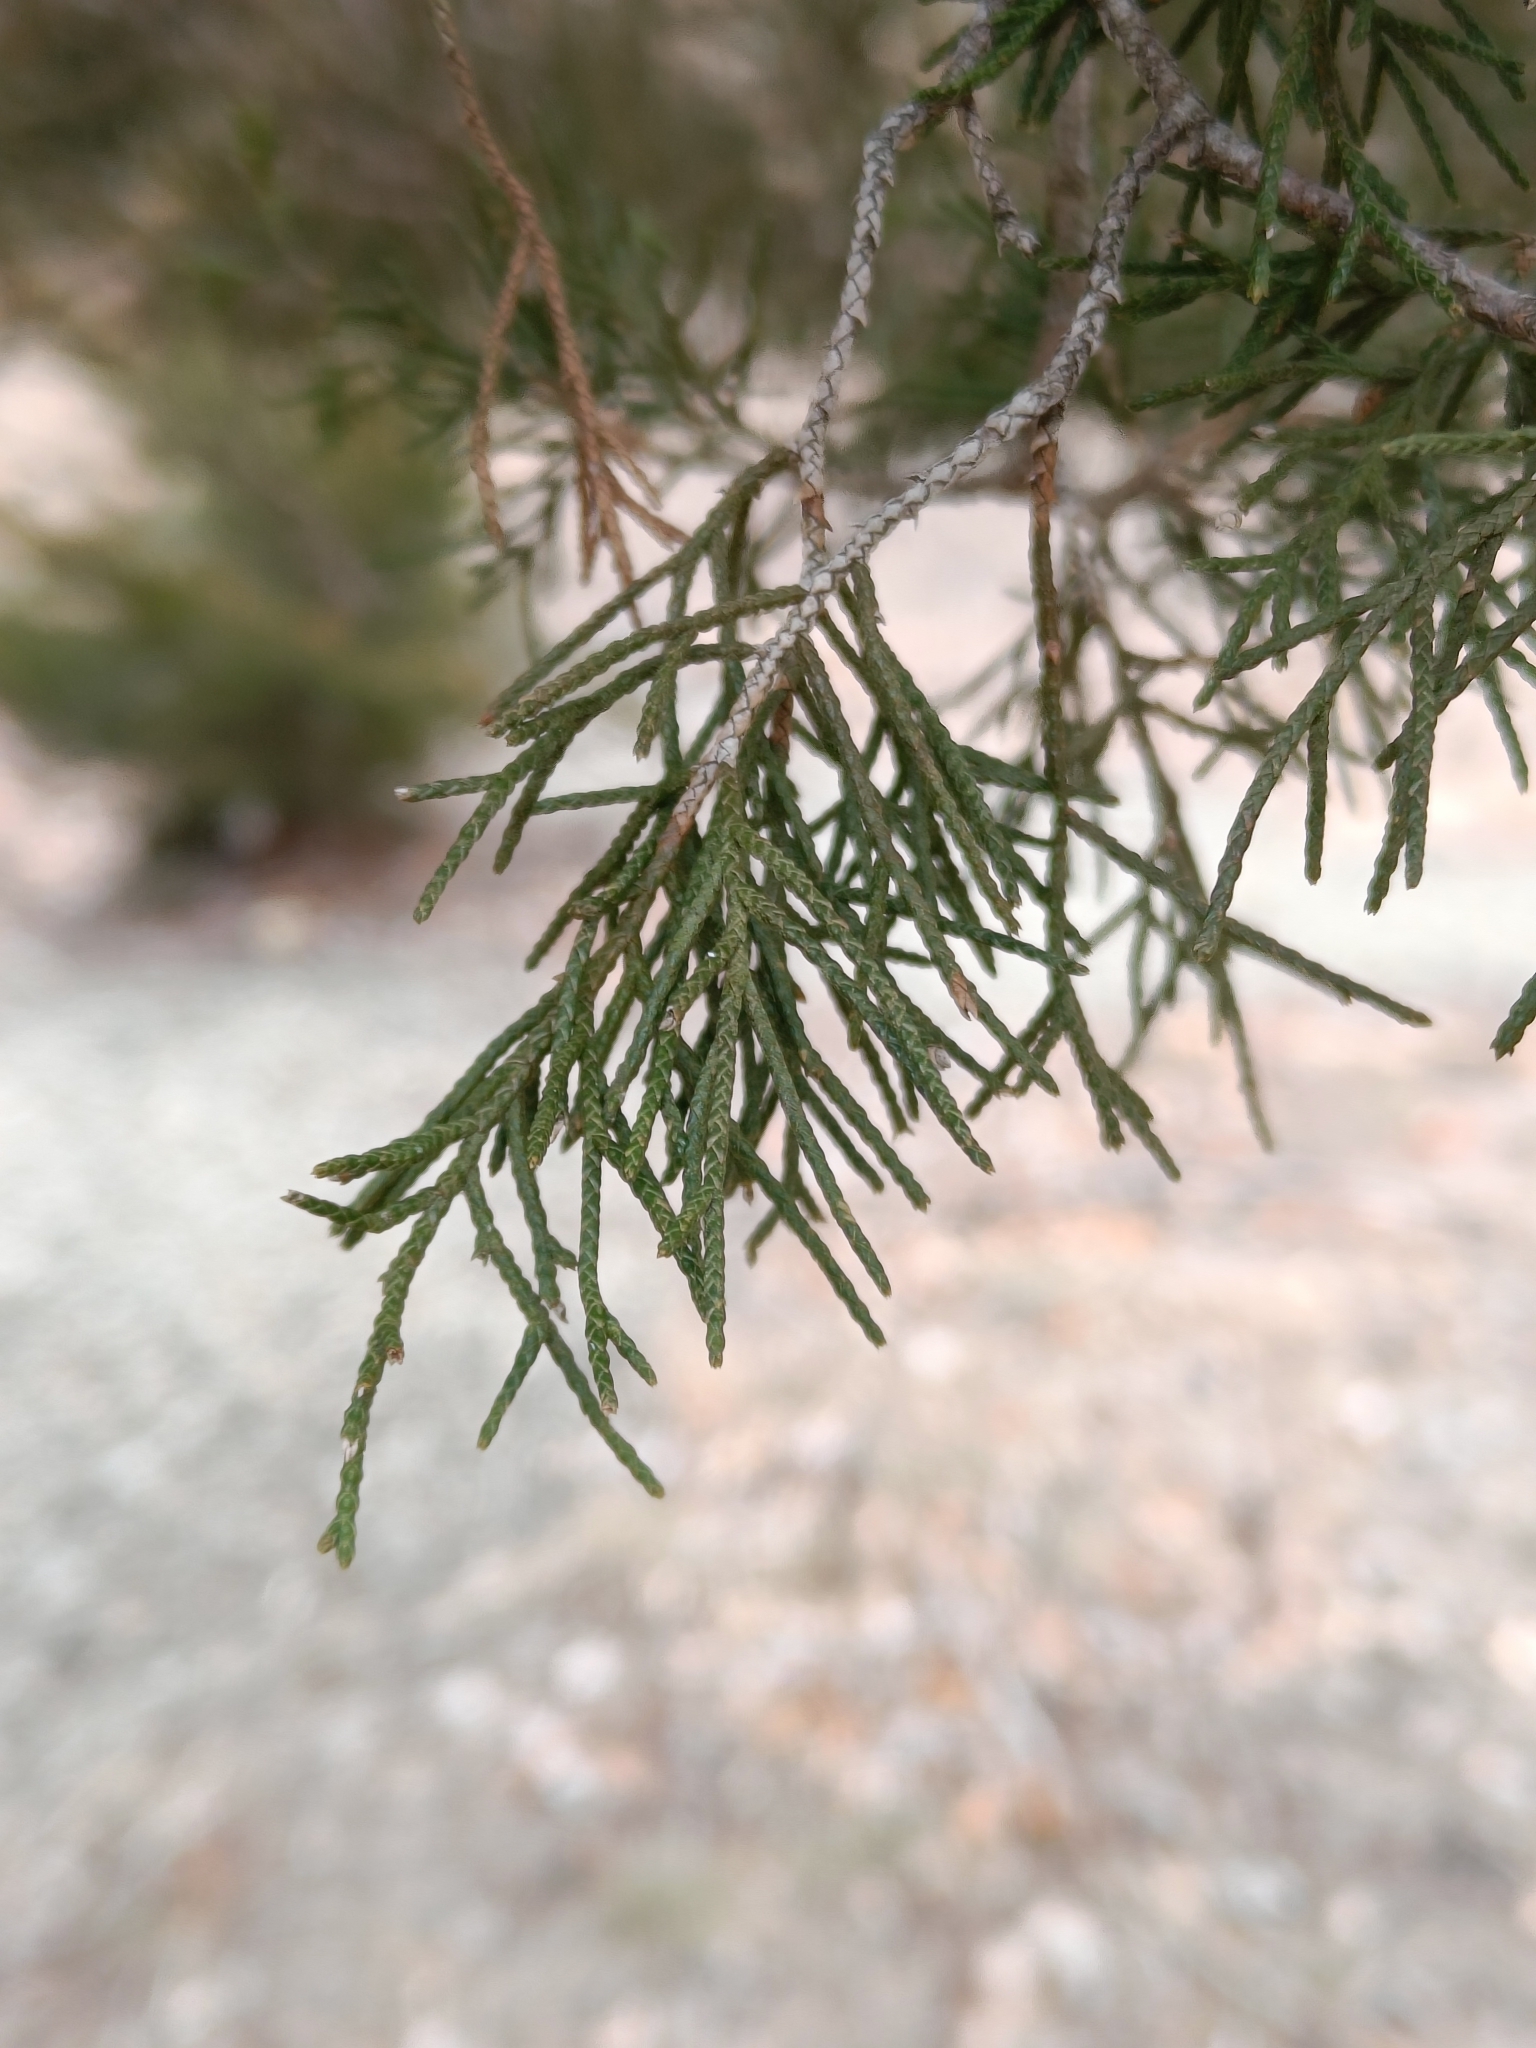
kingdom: Plantae
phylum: Tracheophyta
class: Pinopsida
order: Pinales
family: Cupressaceae
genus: Juniperus
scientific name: Juniperus virginiana
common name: Red juniper
